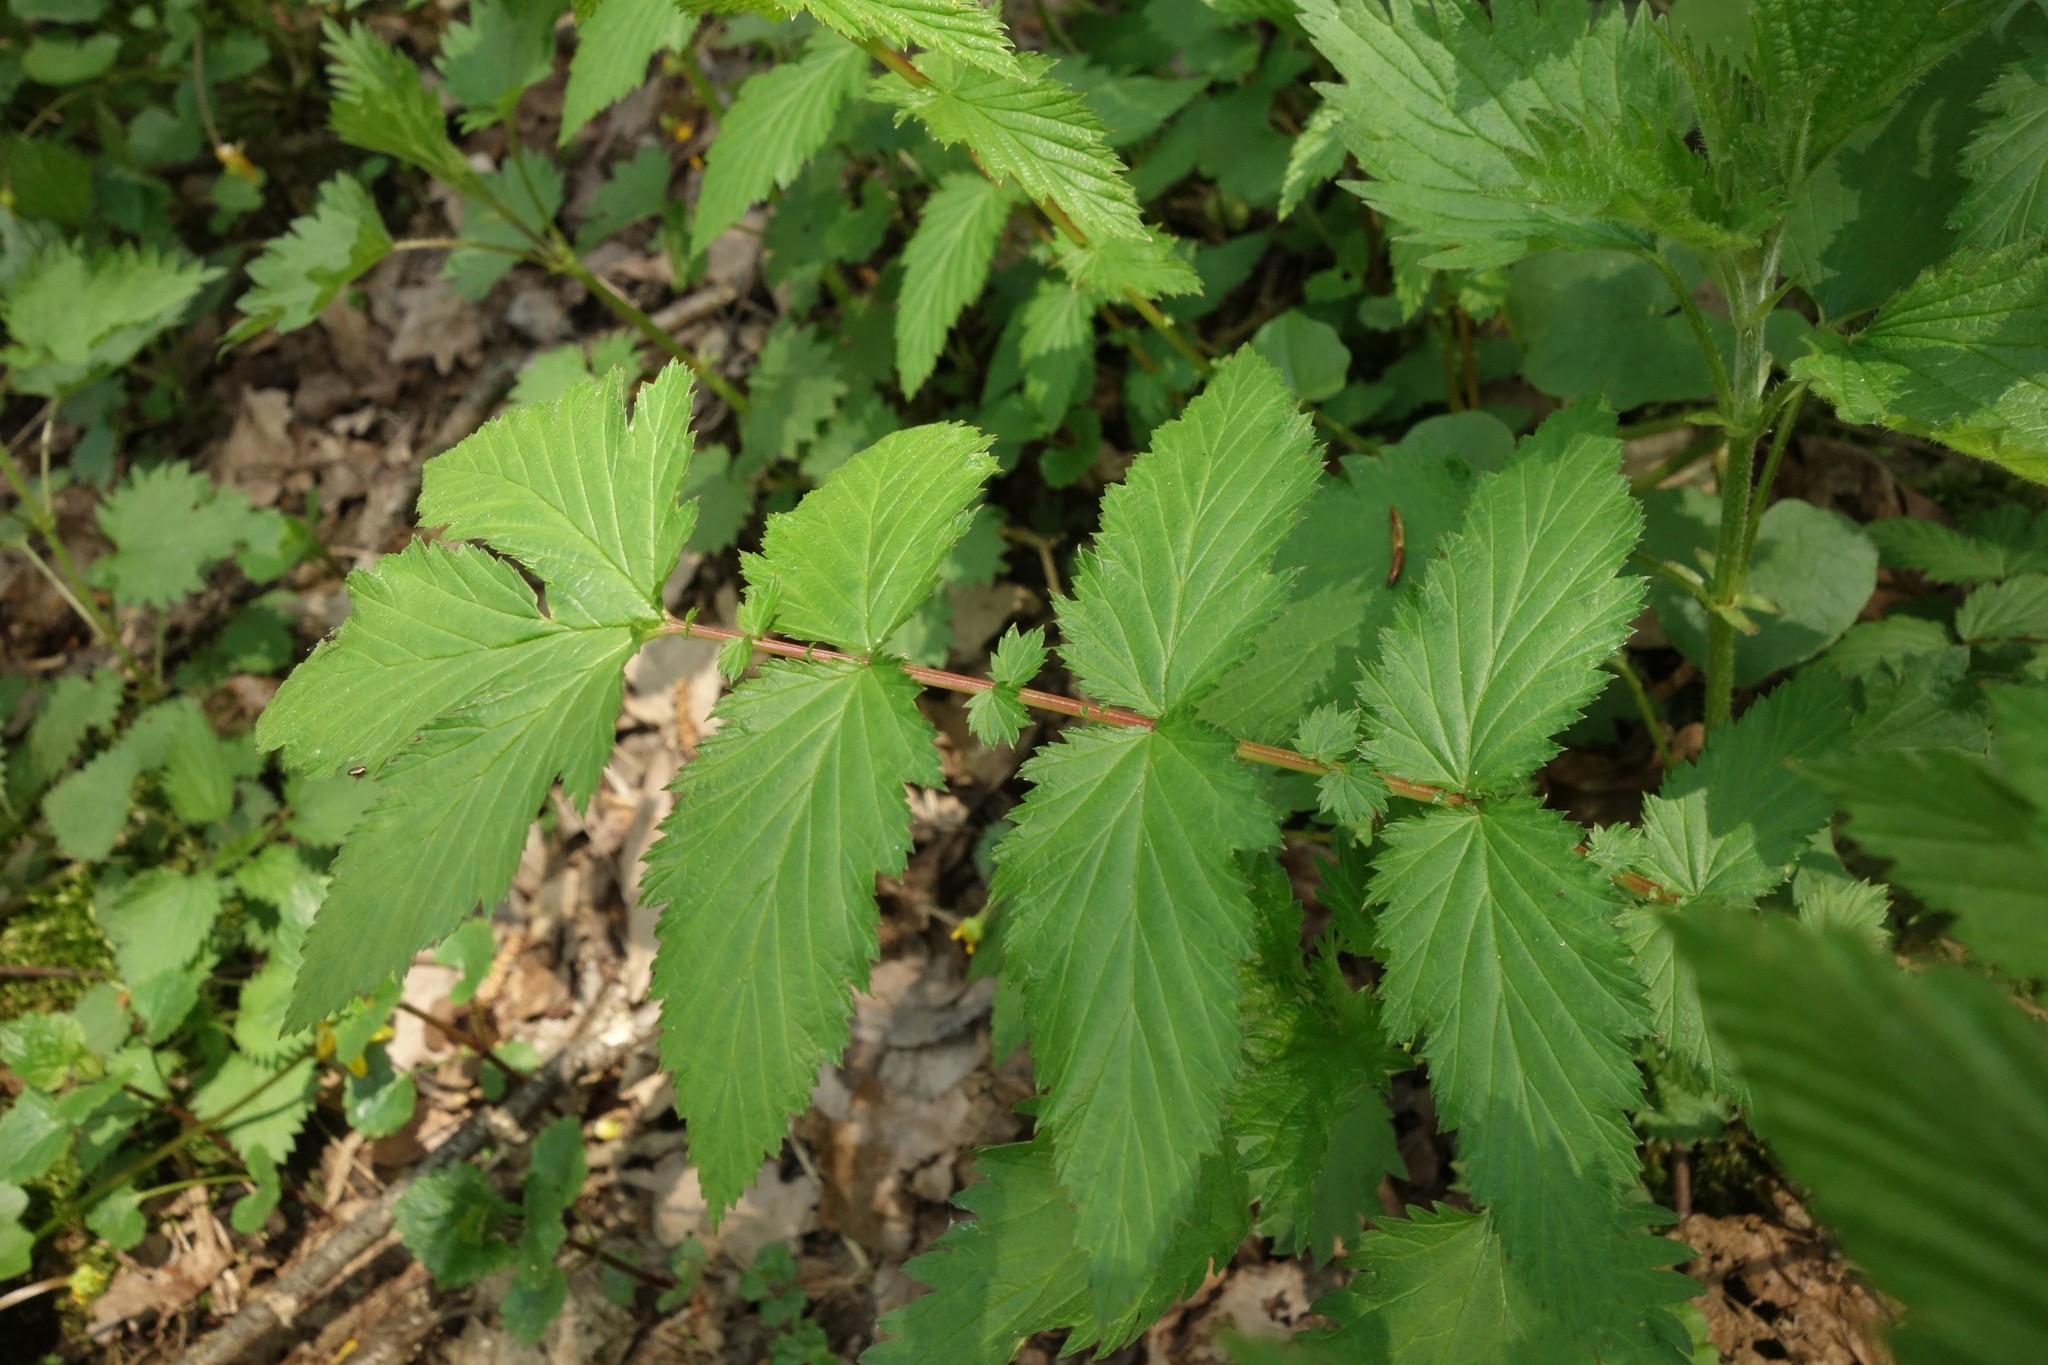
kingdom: Plantae
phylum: Tracheophyta
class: Magnoliopsida
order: Rosales
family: Rosaceae
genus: Filipendula
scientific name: Filipendula ulmaria
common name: Meadowsweet
